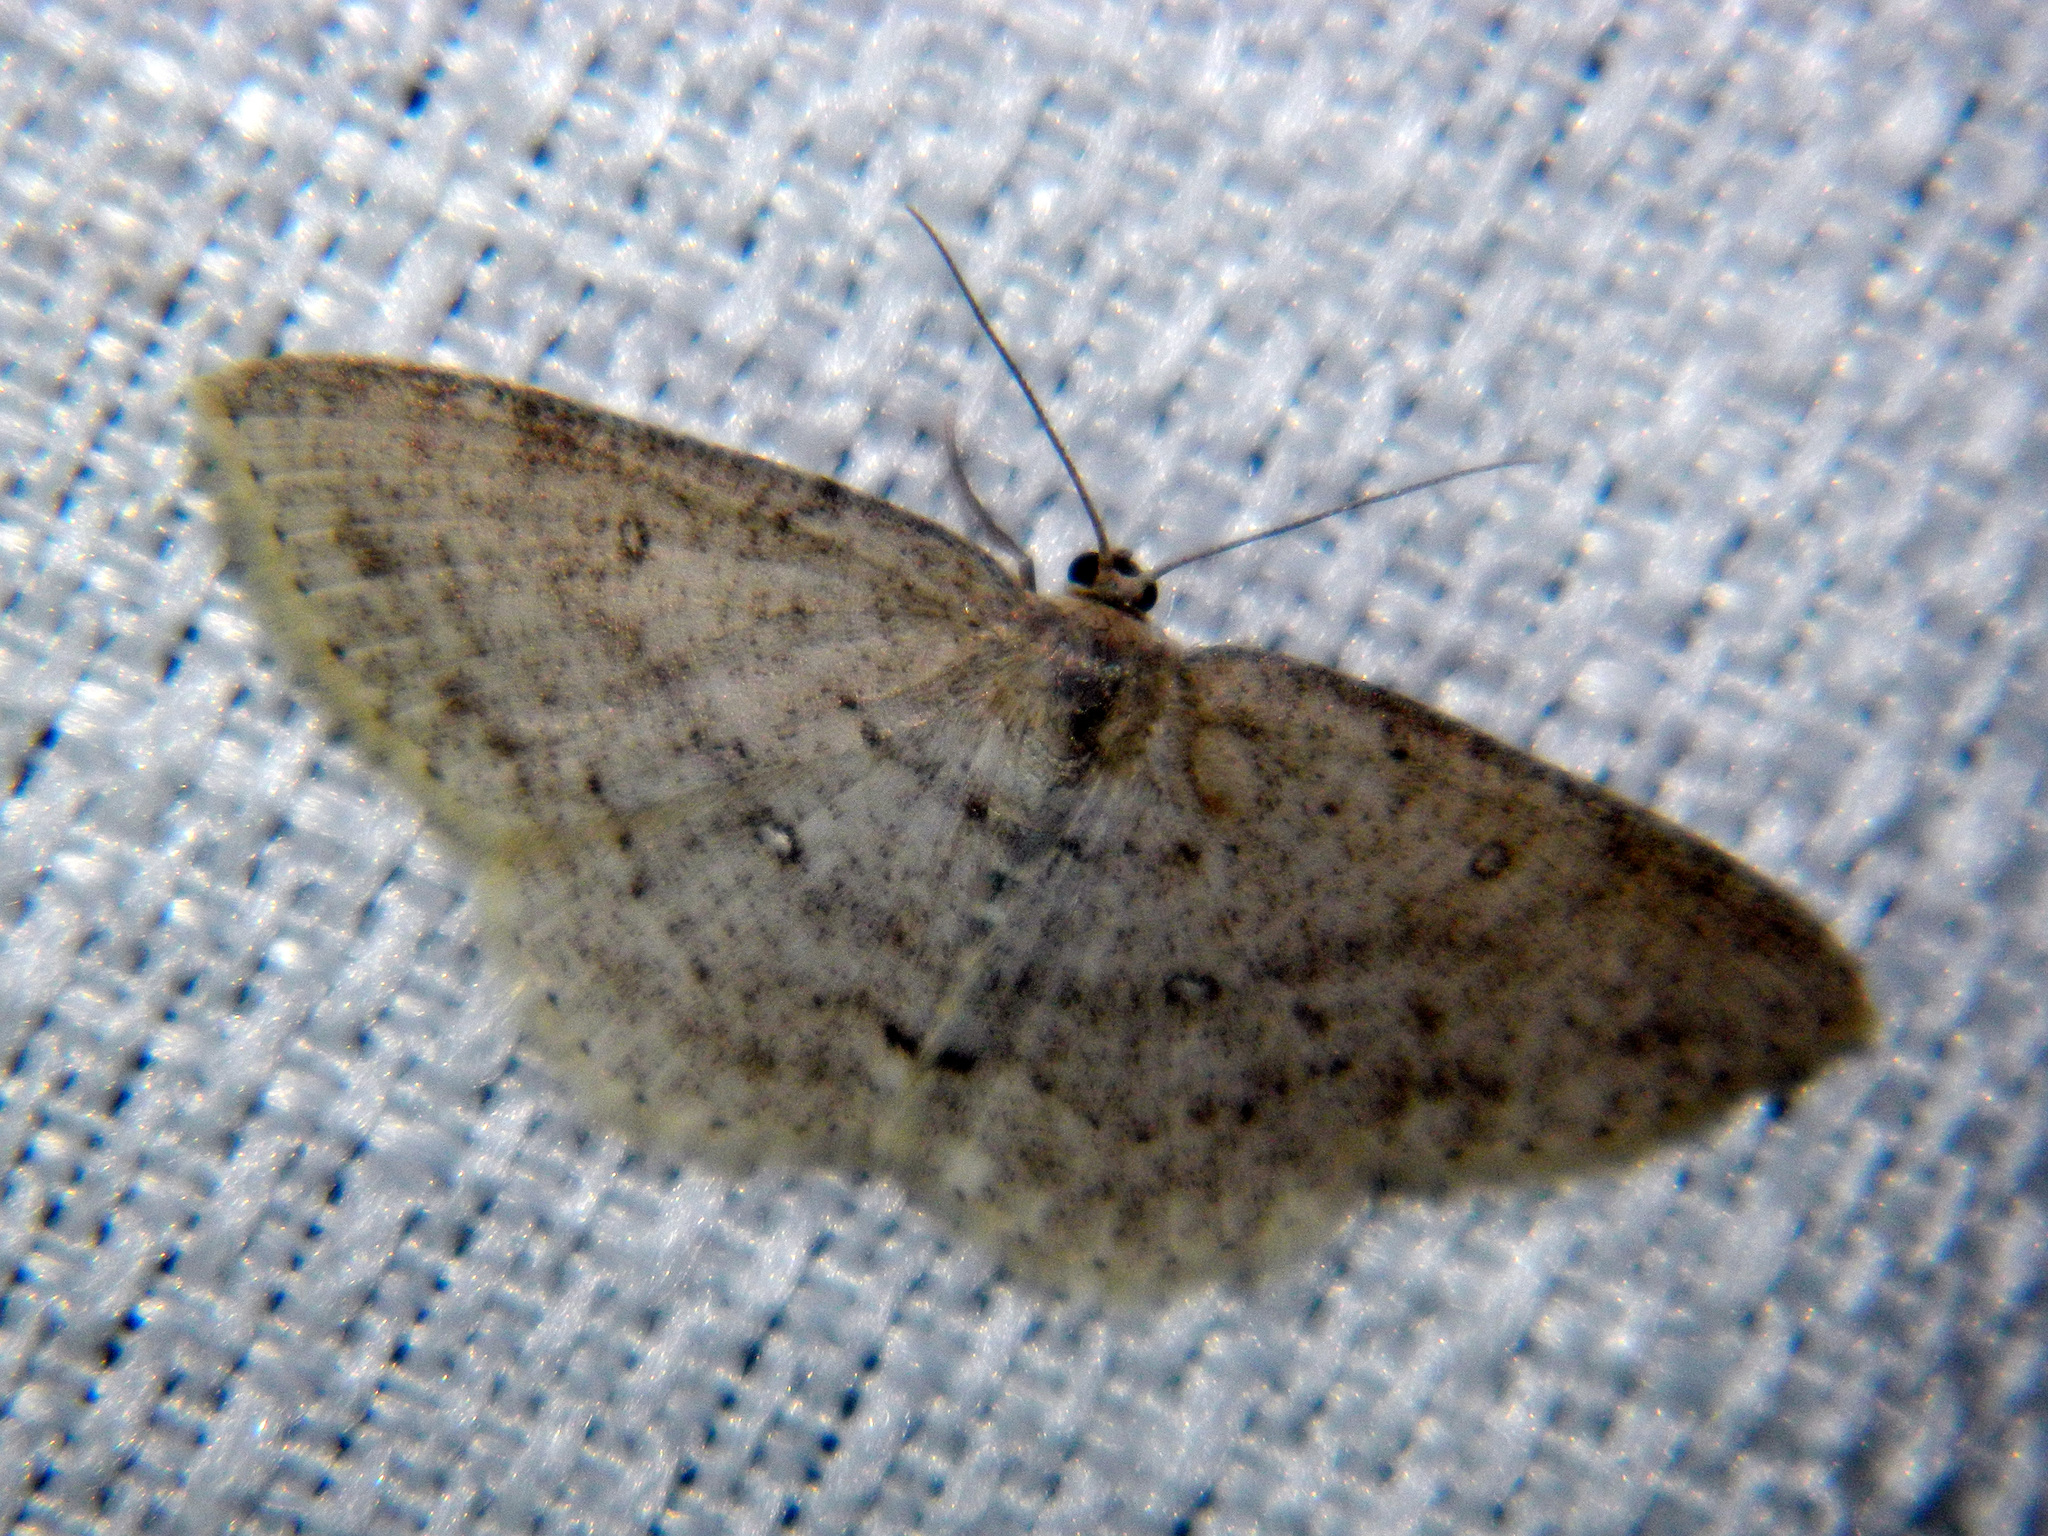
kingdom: Animalia
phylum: Arthropoda
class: Insecta
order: Lepidoptera
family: Geometridae
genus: Cyclophora
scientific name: Cyclophora pendulinaria
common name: Sweet fern geometer
